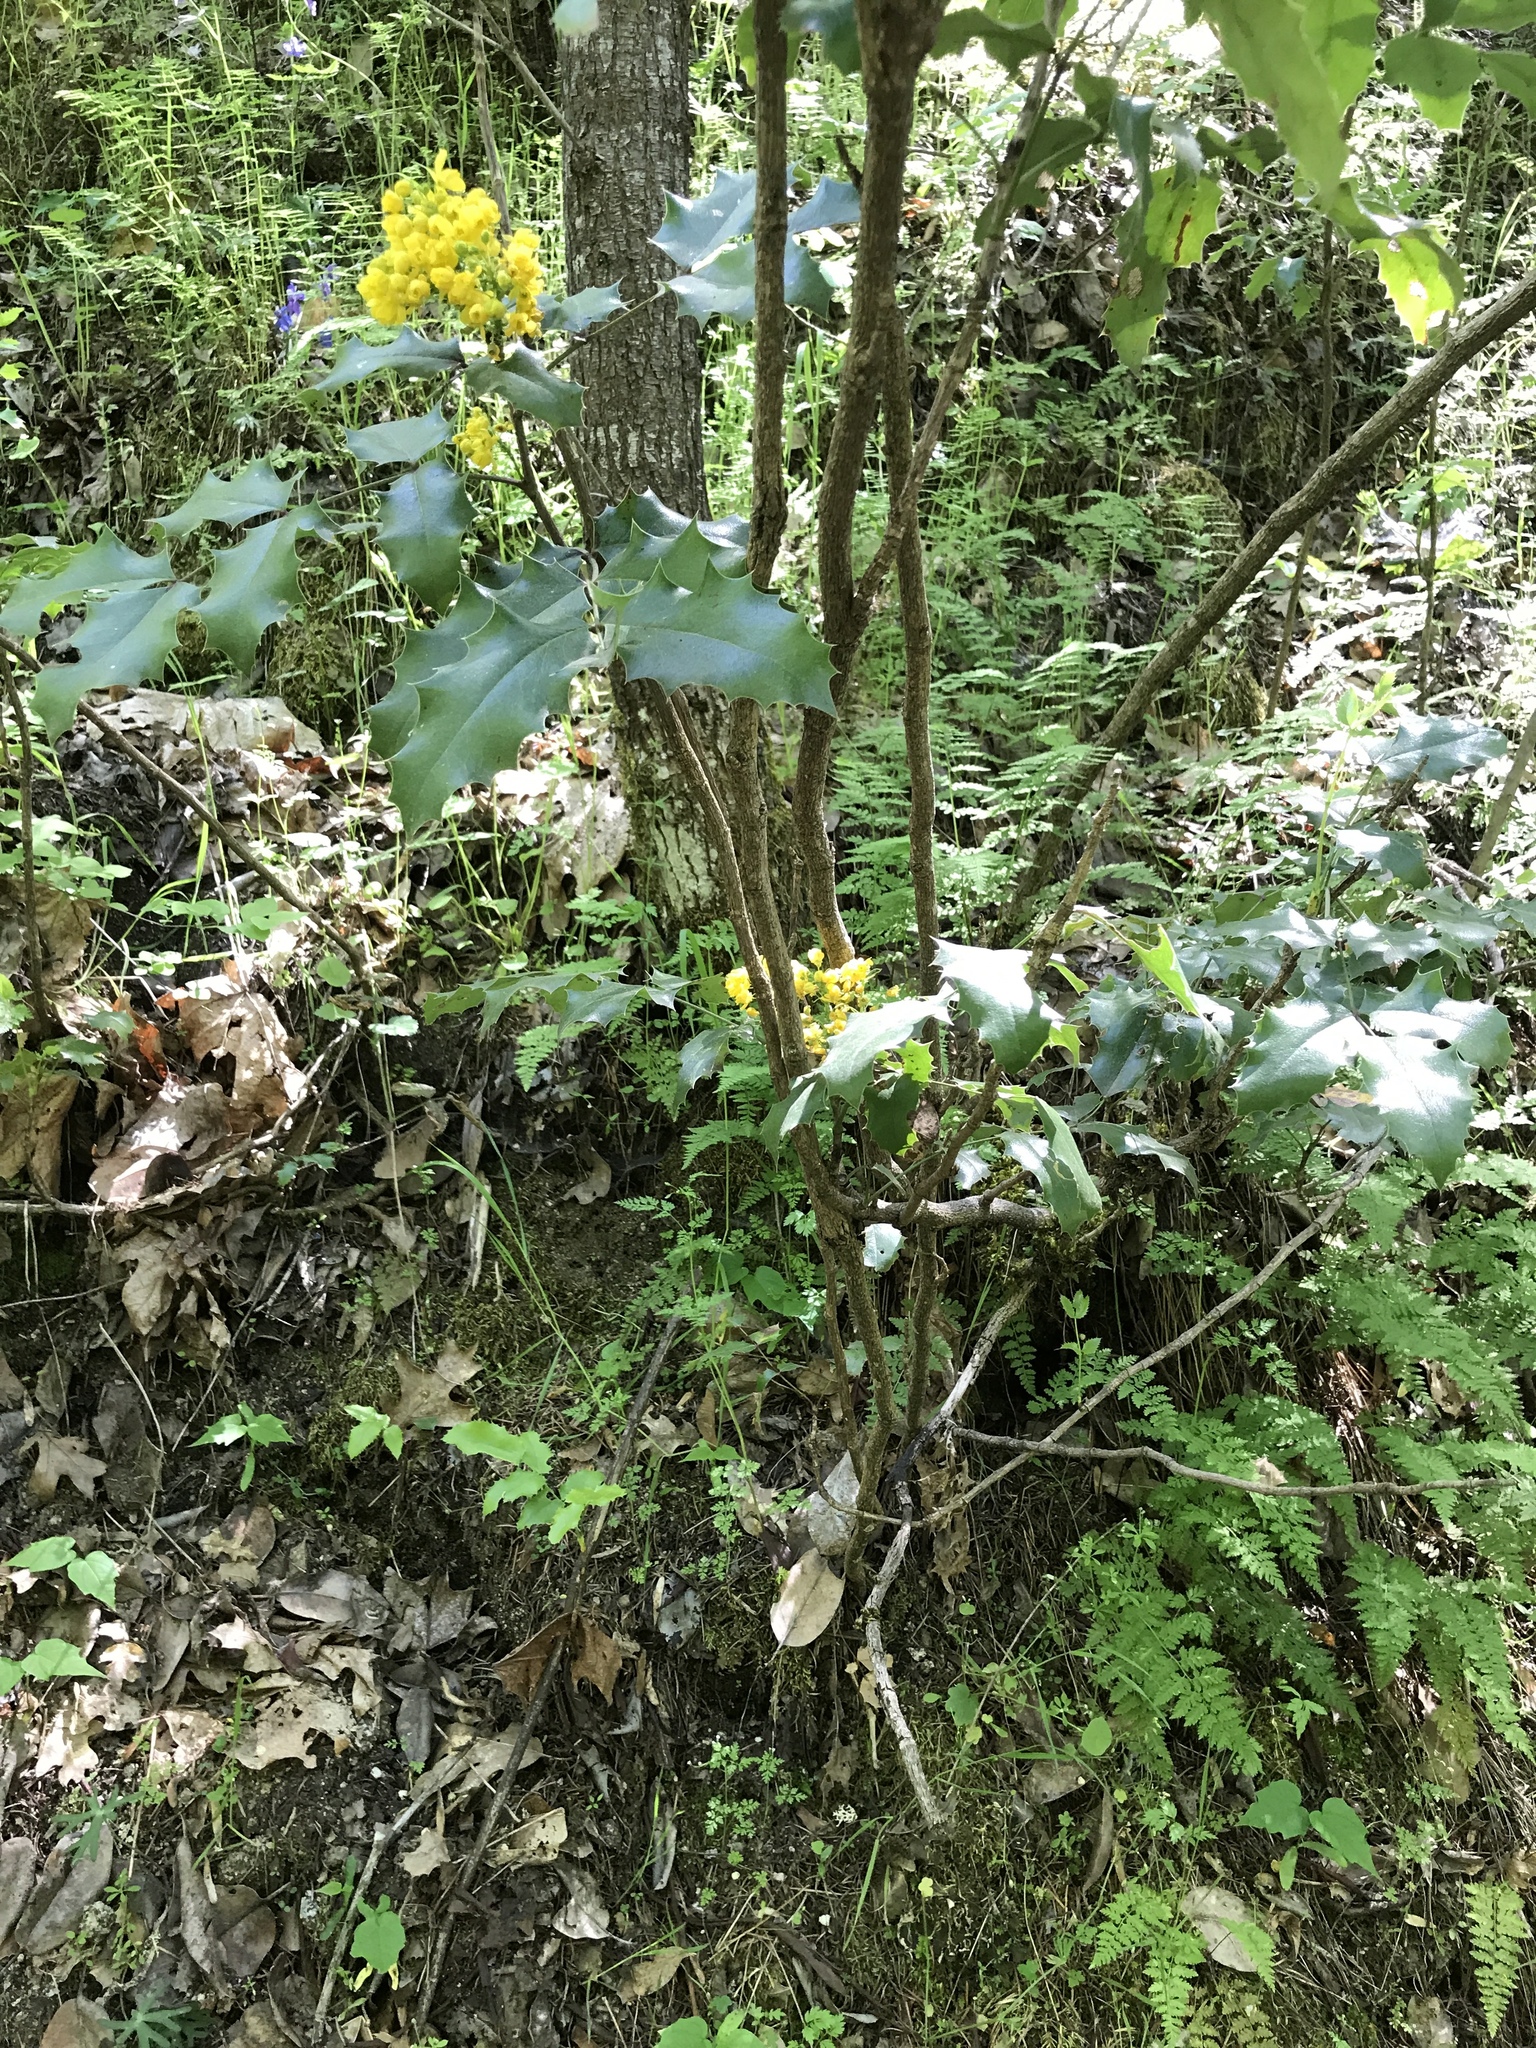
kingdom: Plantae
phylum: Tracheophyta
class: Magnoliopsida
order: Ranunculales
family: Berberidaceae
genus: Mahonia
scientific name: Mahonia aquifolium
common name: Oregon-grape
